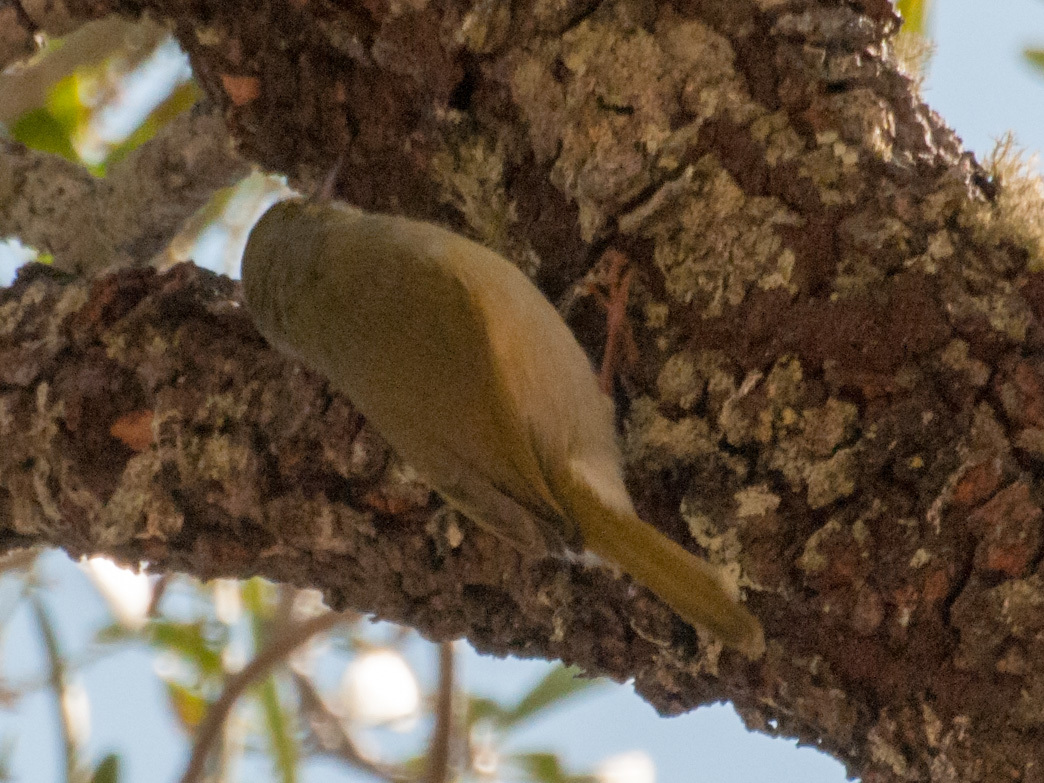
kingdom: Animalia
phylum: Chordata
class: Aves
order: Passeriformes
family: Cisticolidae
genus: Neomixis
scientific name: Neomixis tenella
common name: Common jery
